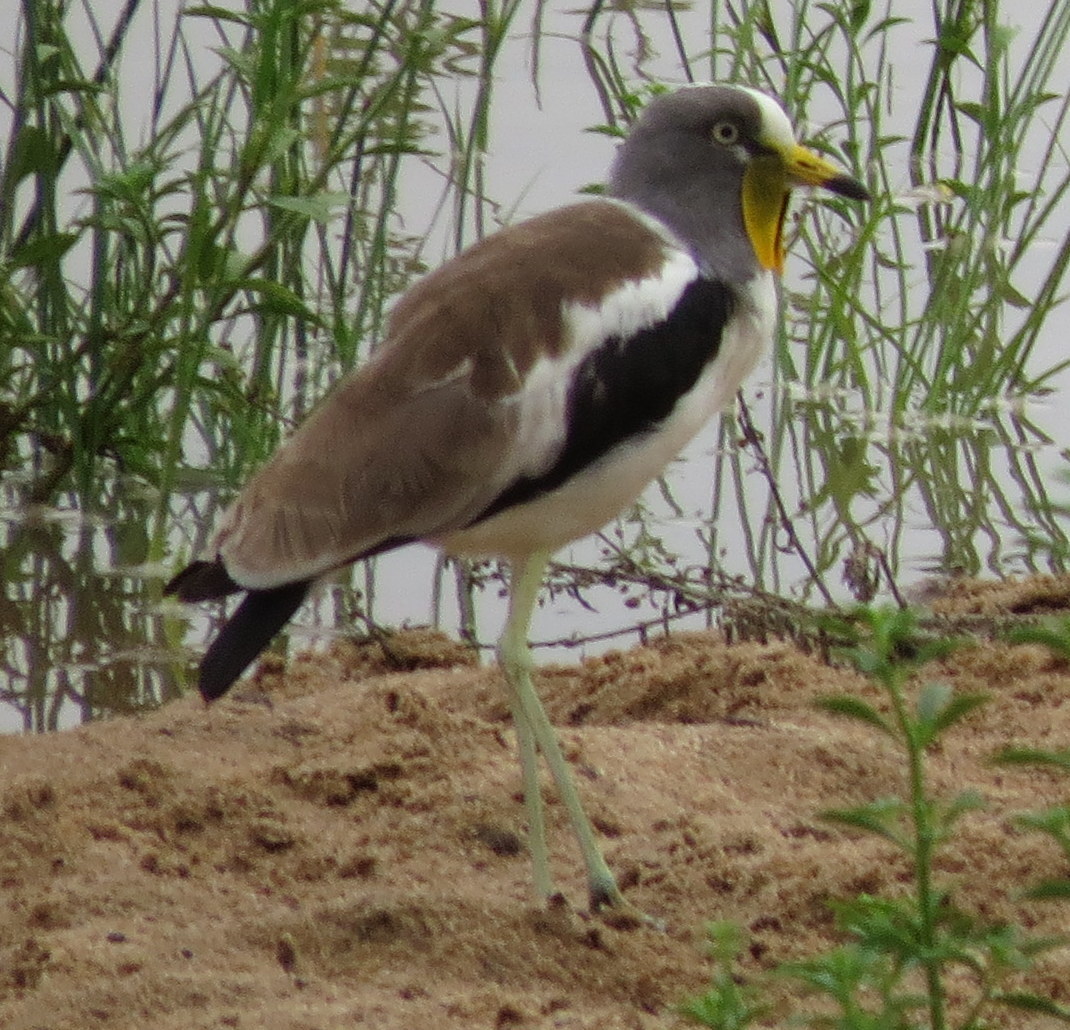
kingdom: Animalia
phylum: Chordata
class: Aves
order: Charadriiformes
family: Charadriidae
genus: Vanellus
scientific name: Vanellus albiceps
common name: White-crowned lapwing
